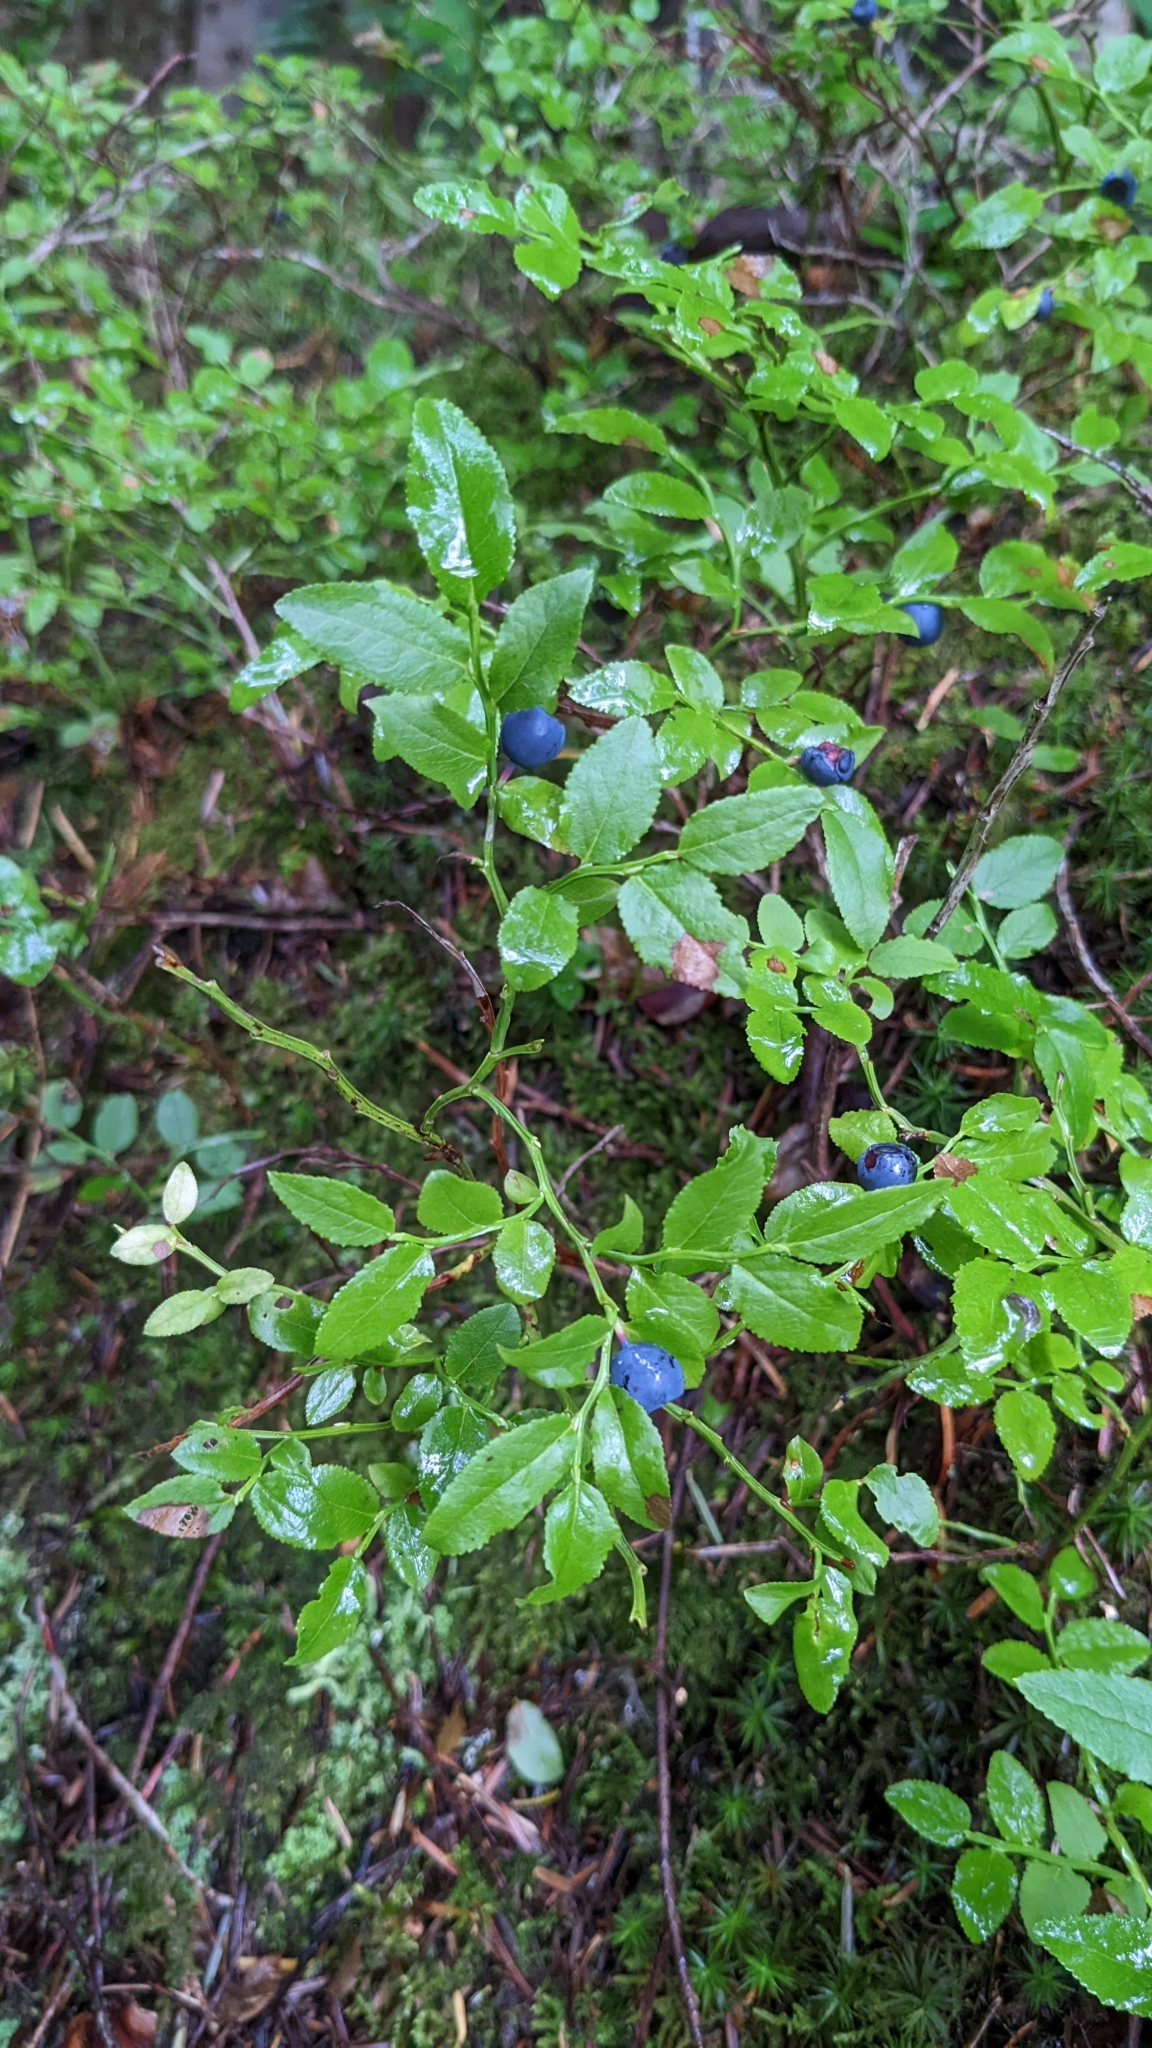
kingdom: Plantae
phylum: Tracheophyta
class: Magnoliopsida
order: Ericales
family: Ericaceae
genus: Vaccinium
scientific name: Vaccinium myrtillus
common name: Bilberry
